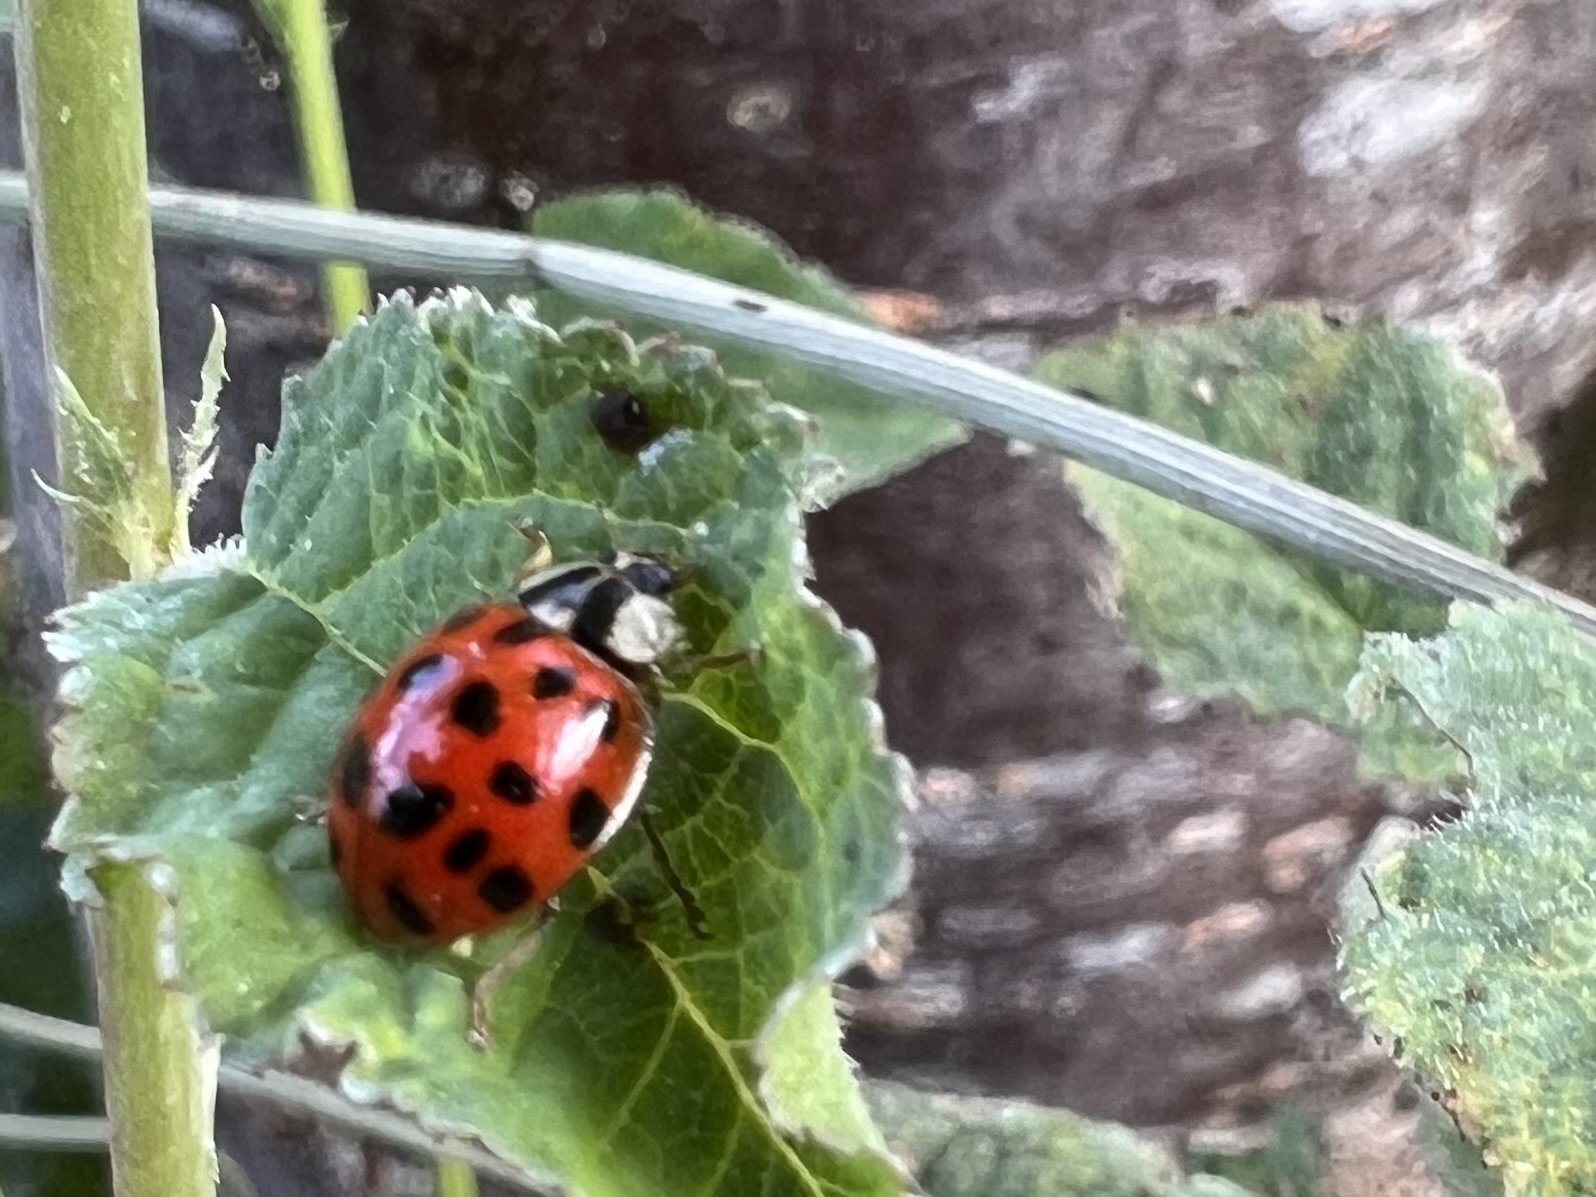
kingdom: Animalia
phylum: Arthropoda
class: Insecta
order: Coleoptera
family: Coccinellidae
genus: Harmonia
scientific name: Harmonia axyridis
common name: Harlequin ladybird
